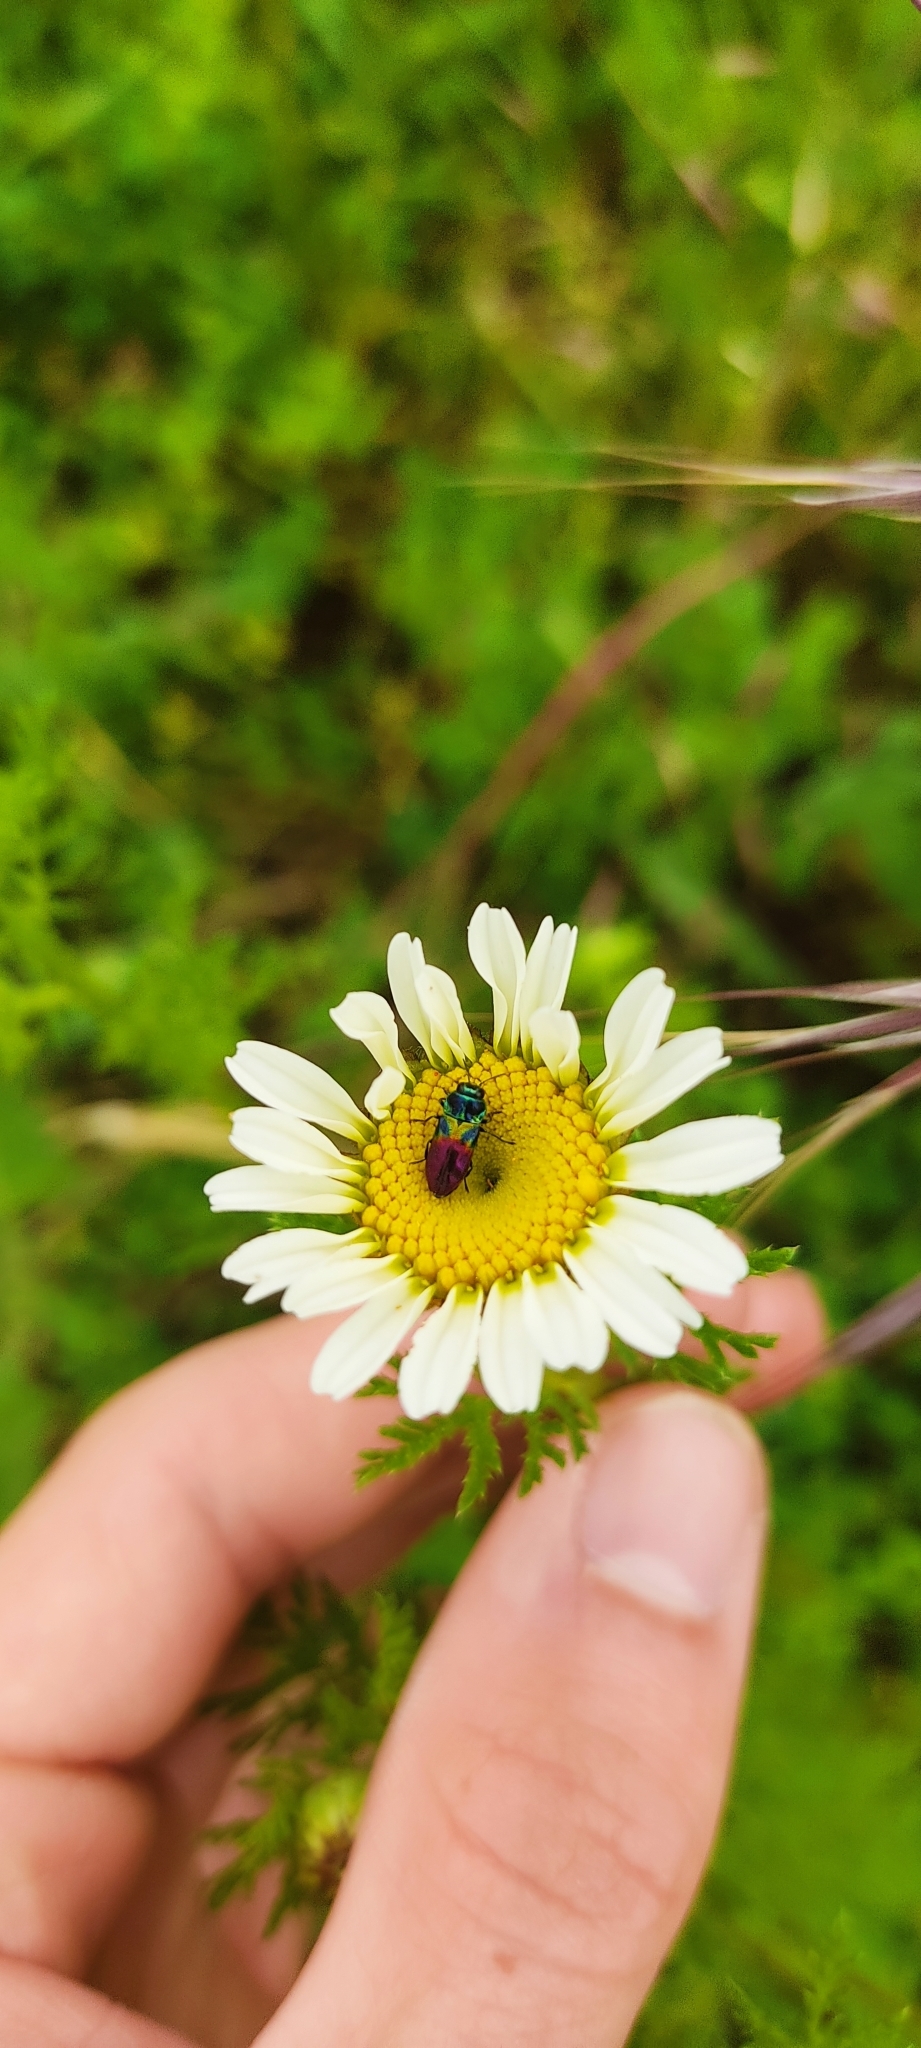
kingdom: Animalia
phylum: Arthropoda
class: Insecta
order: Coleoptera
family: Buprestidae
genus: Anthaxia
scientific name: Anthaxia dimidiata
